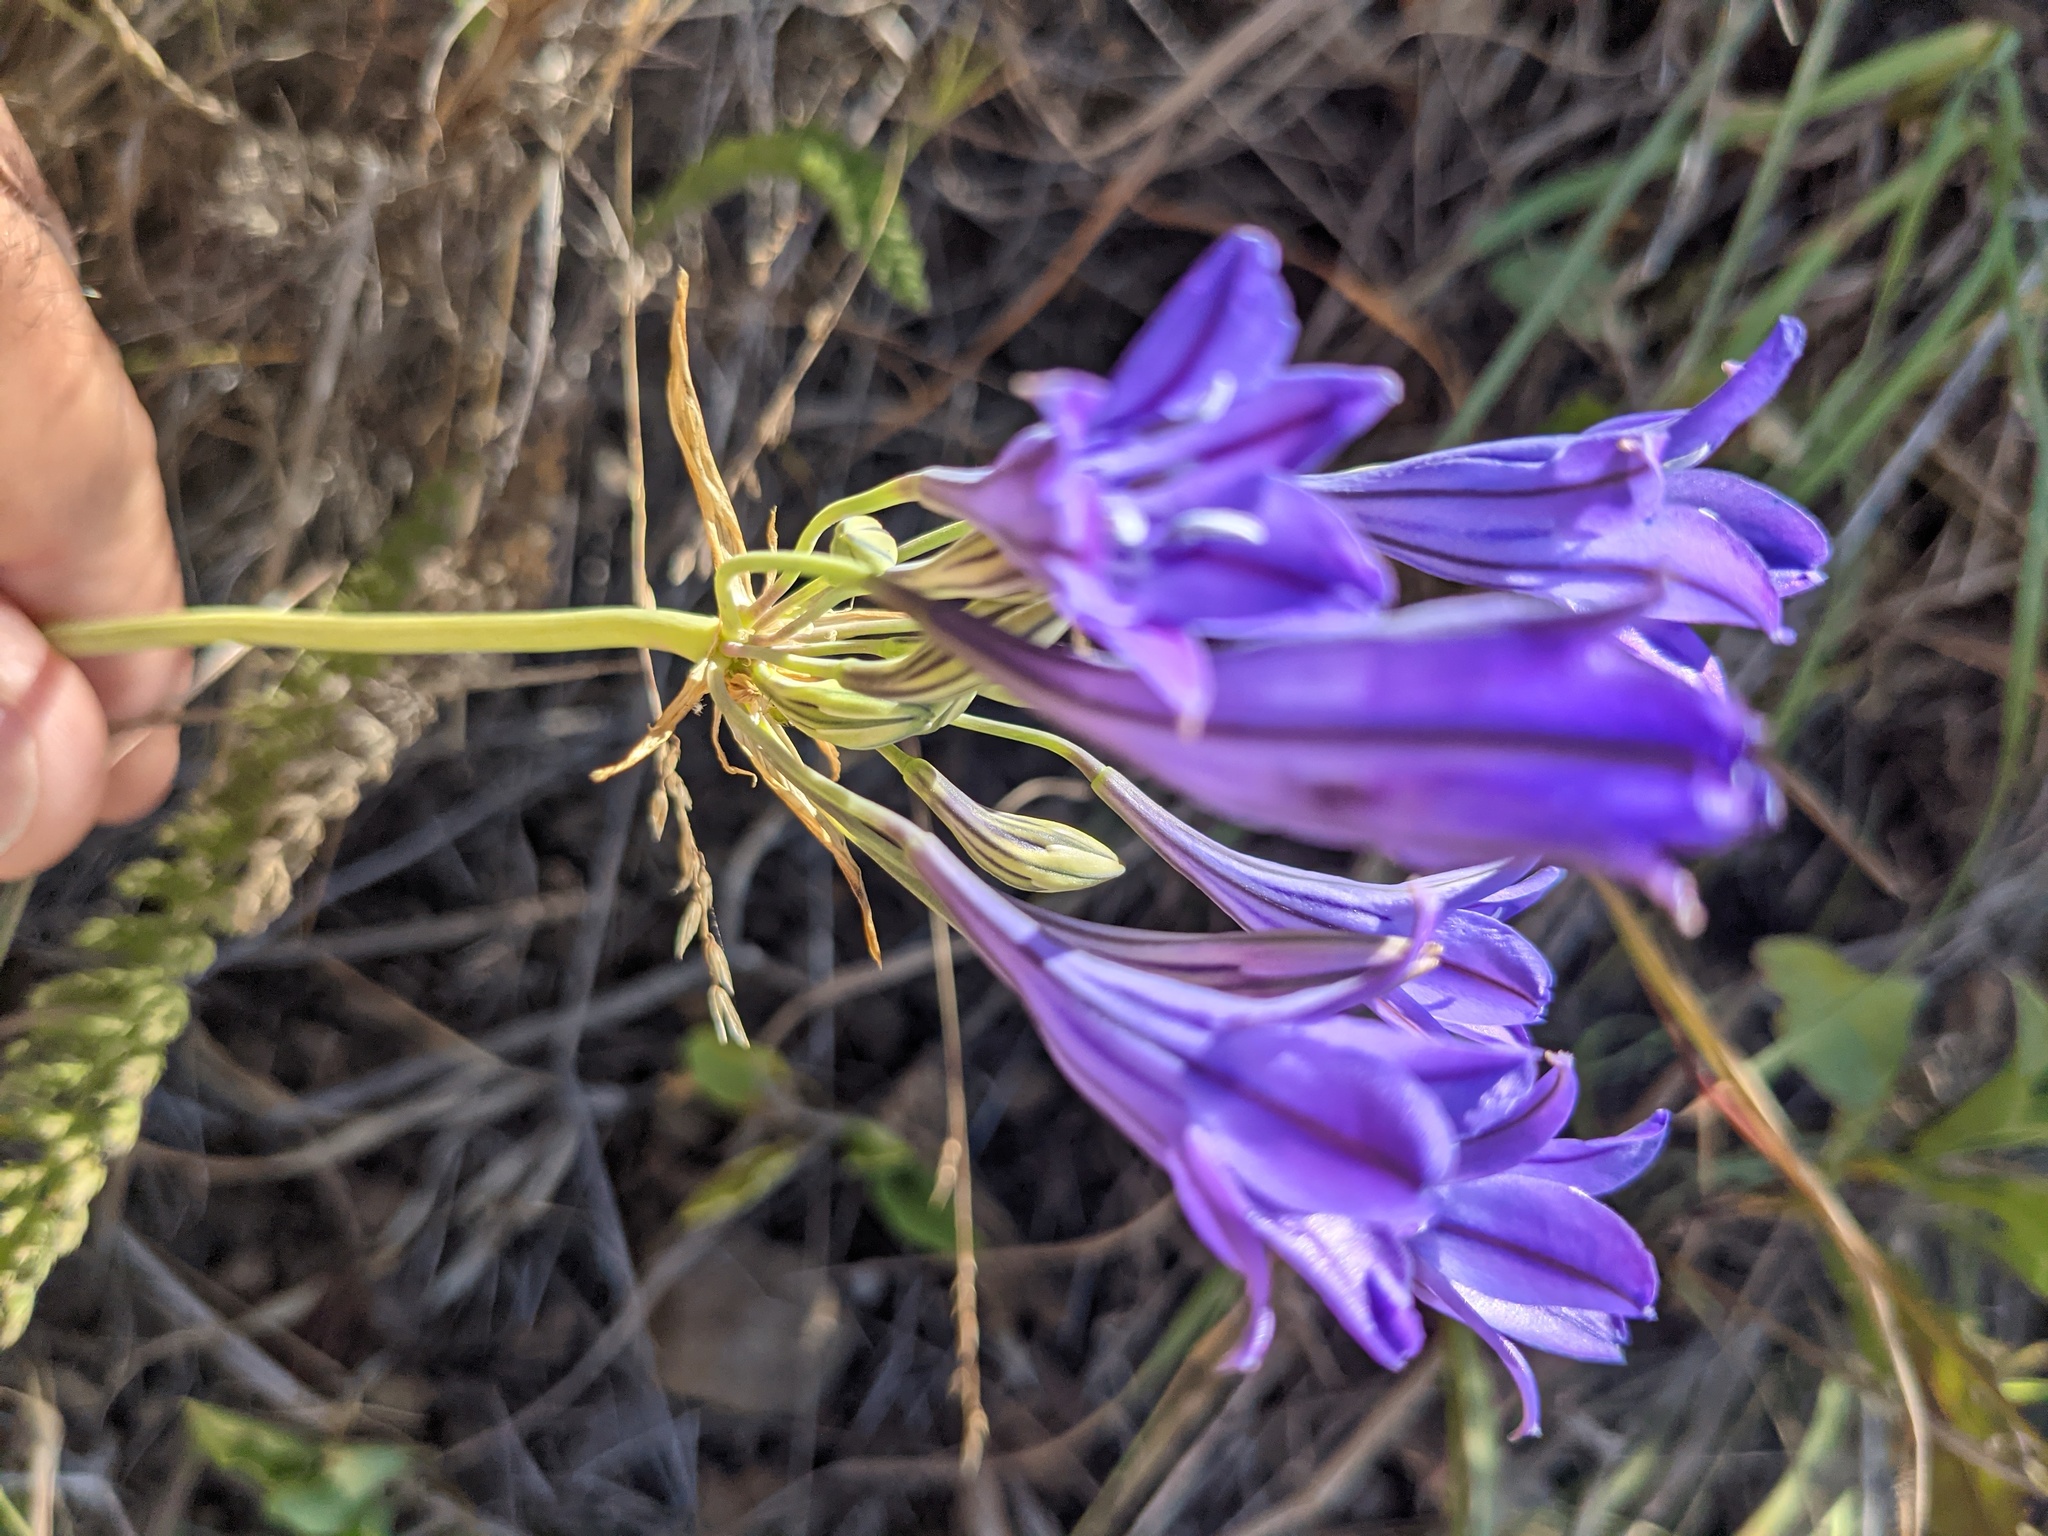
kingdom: Plantae
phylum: Tracheophyta
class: Liliopsida
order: Asparagales
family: Asparagaceae
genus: Triteleia
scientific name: Triteleia laxa
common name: Triplet-lily
